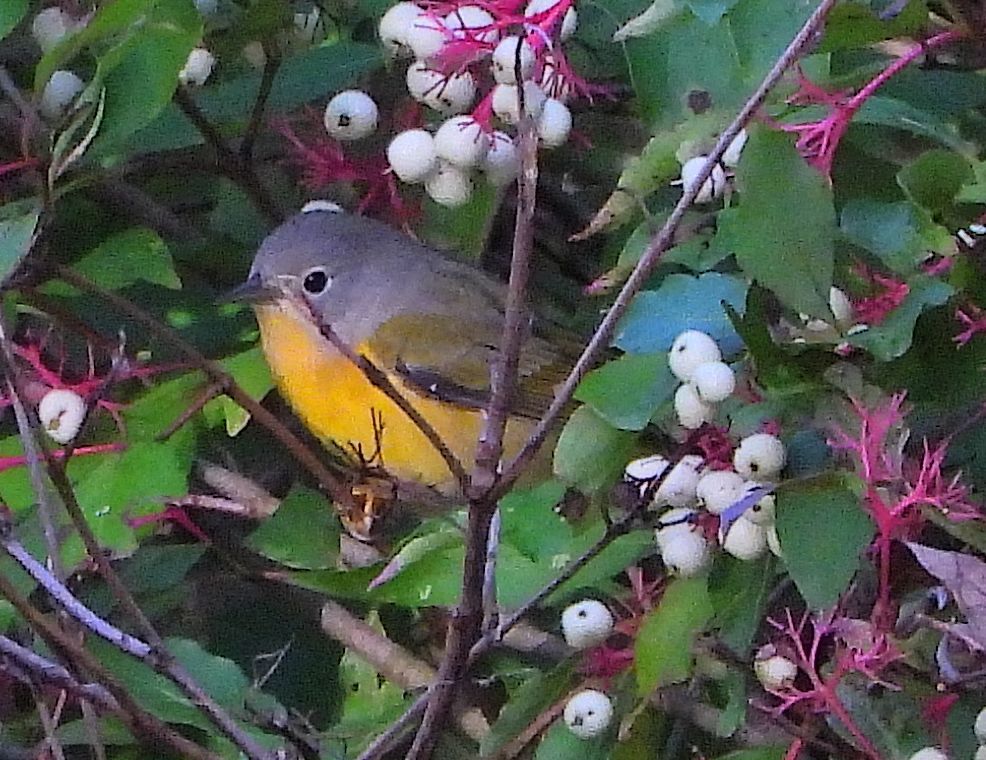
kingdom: Animalia
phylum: Chordata
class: Aves
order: Passeriformes
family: Parulidae
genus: Leiothlypis
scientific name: Leiothlypis ruficapilla
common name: Nashville warbler
